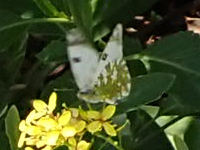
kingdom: Animalia
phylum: Arthropoda
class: Insecta
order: Lepidoptera
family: Pieridae
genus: Euchloe
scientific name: Euchloe crameri
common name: Western dappled white
